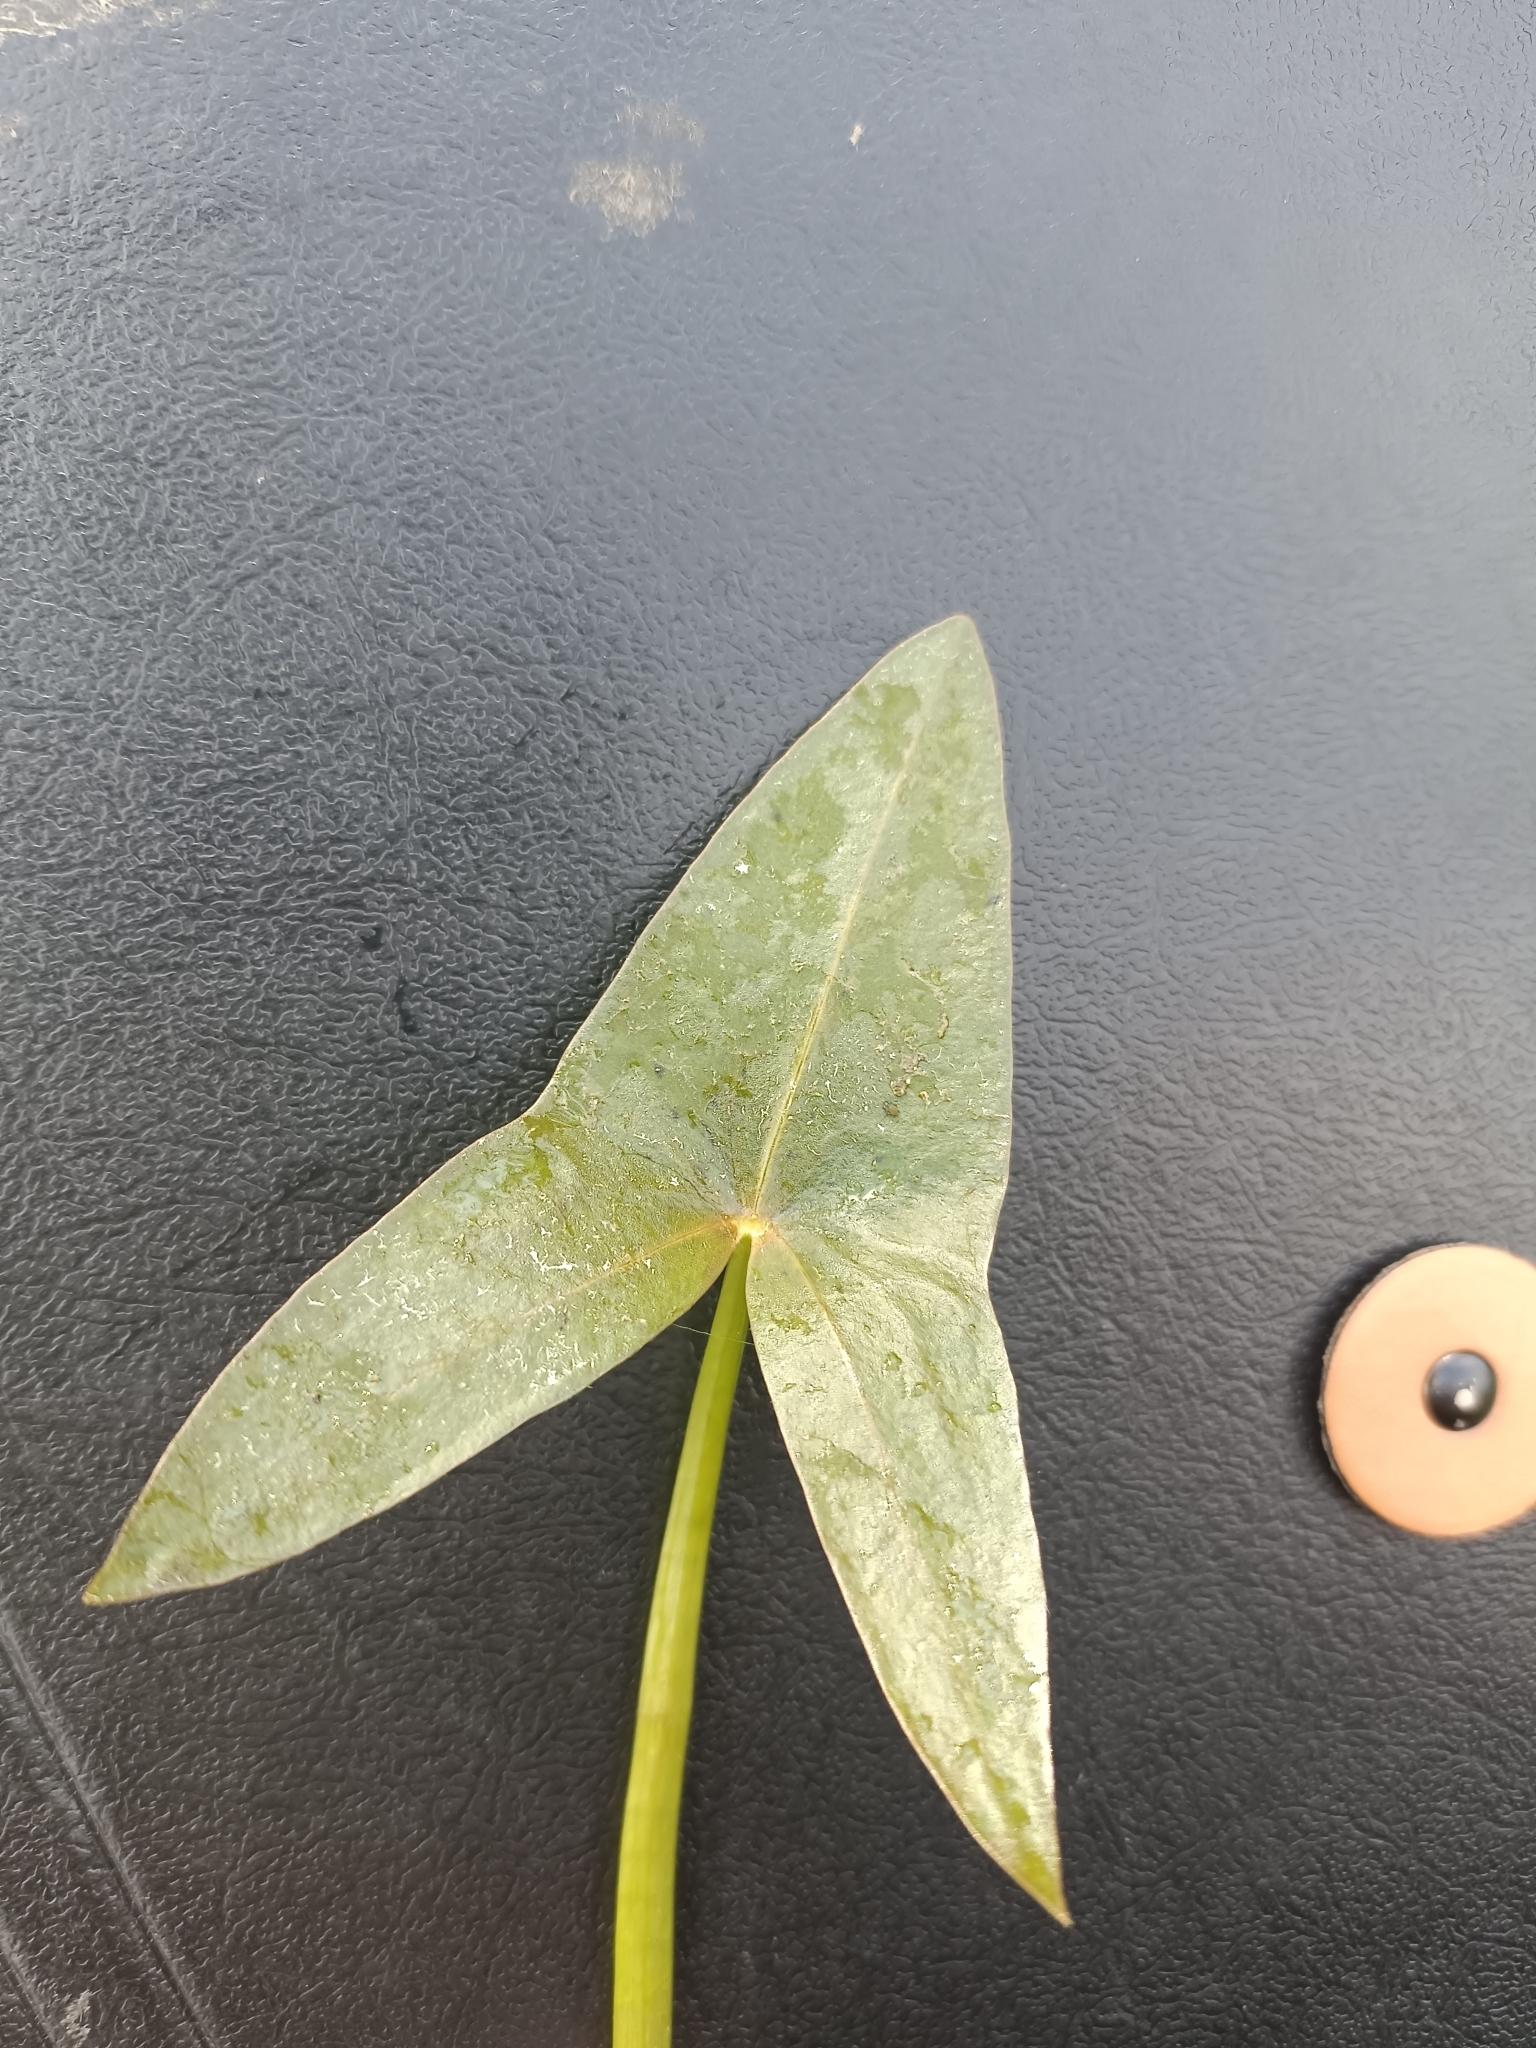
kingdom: Plantae
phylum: Tracheophyta
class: Liliopsida
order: Alismatales
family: Alismataceae
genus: Sagittaria
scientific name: Sagittaria sagittifolia
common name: Arrowhead
